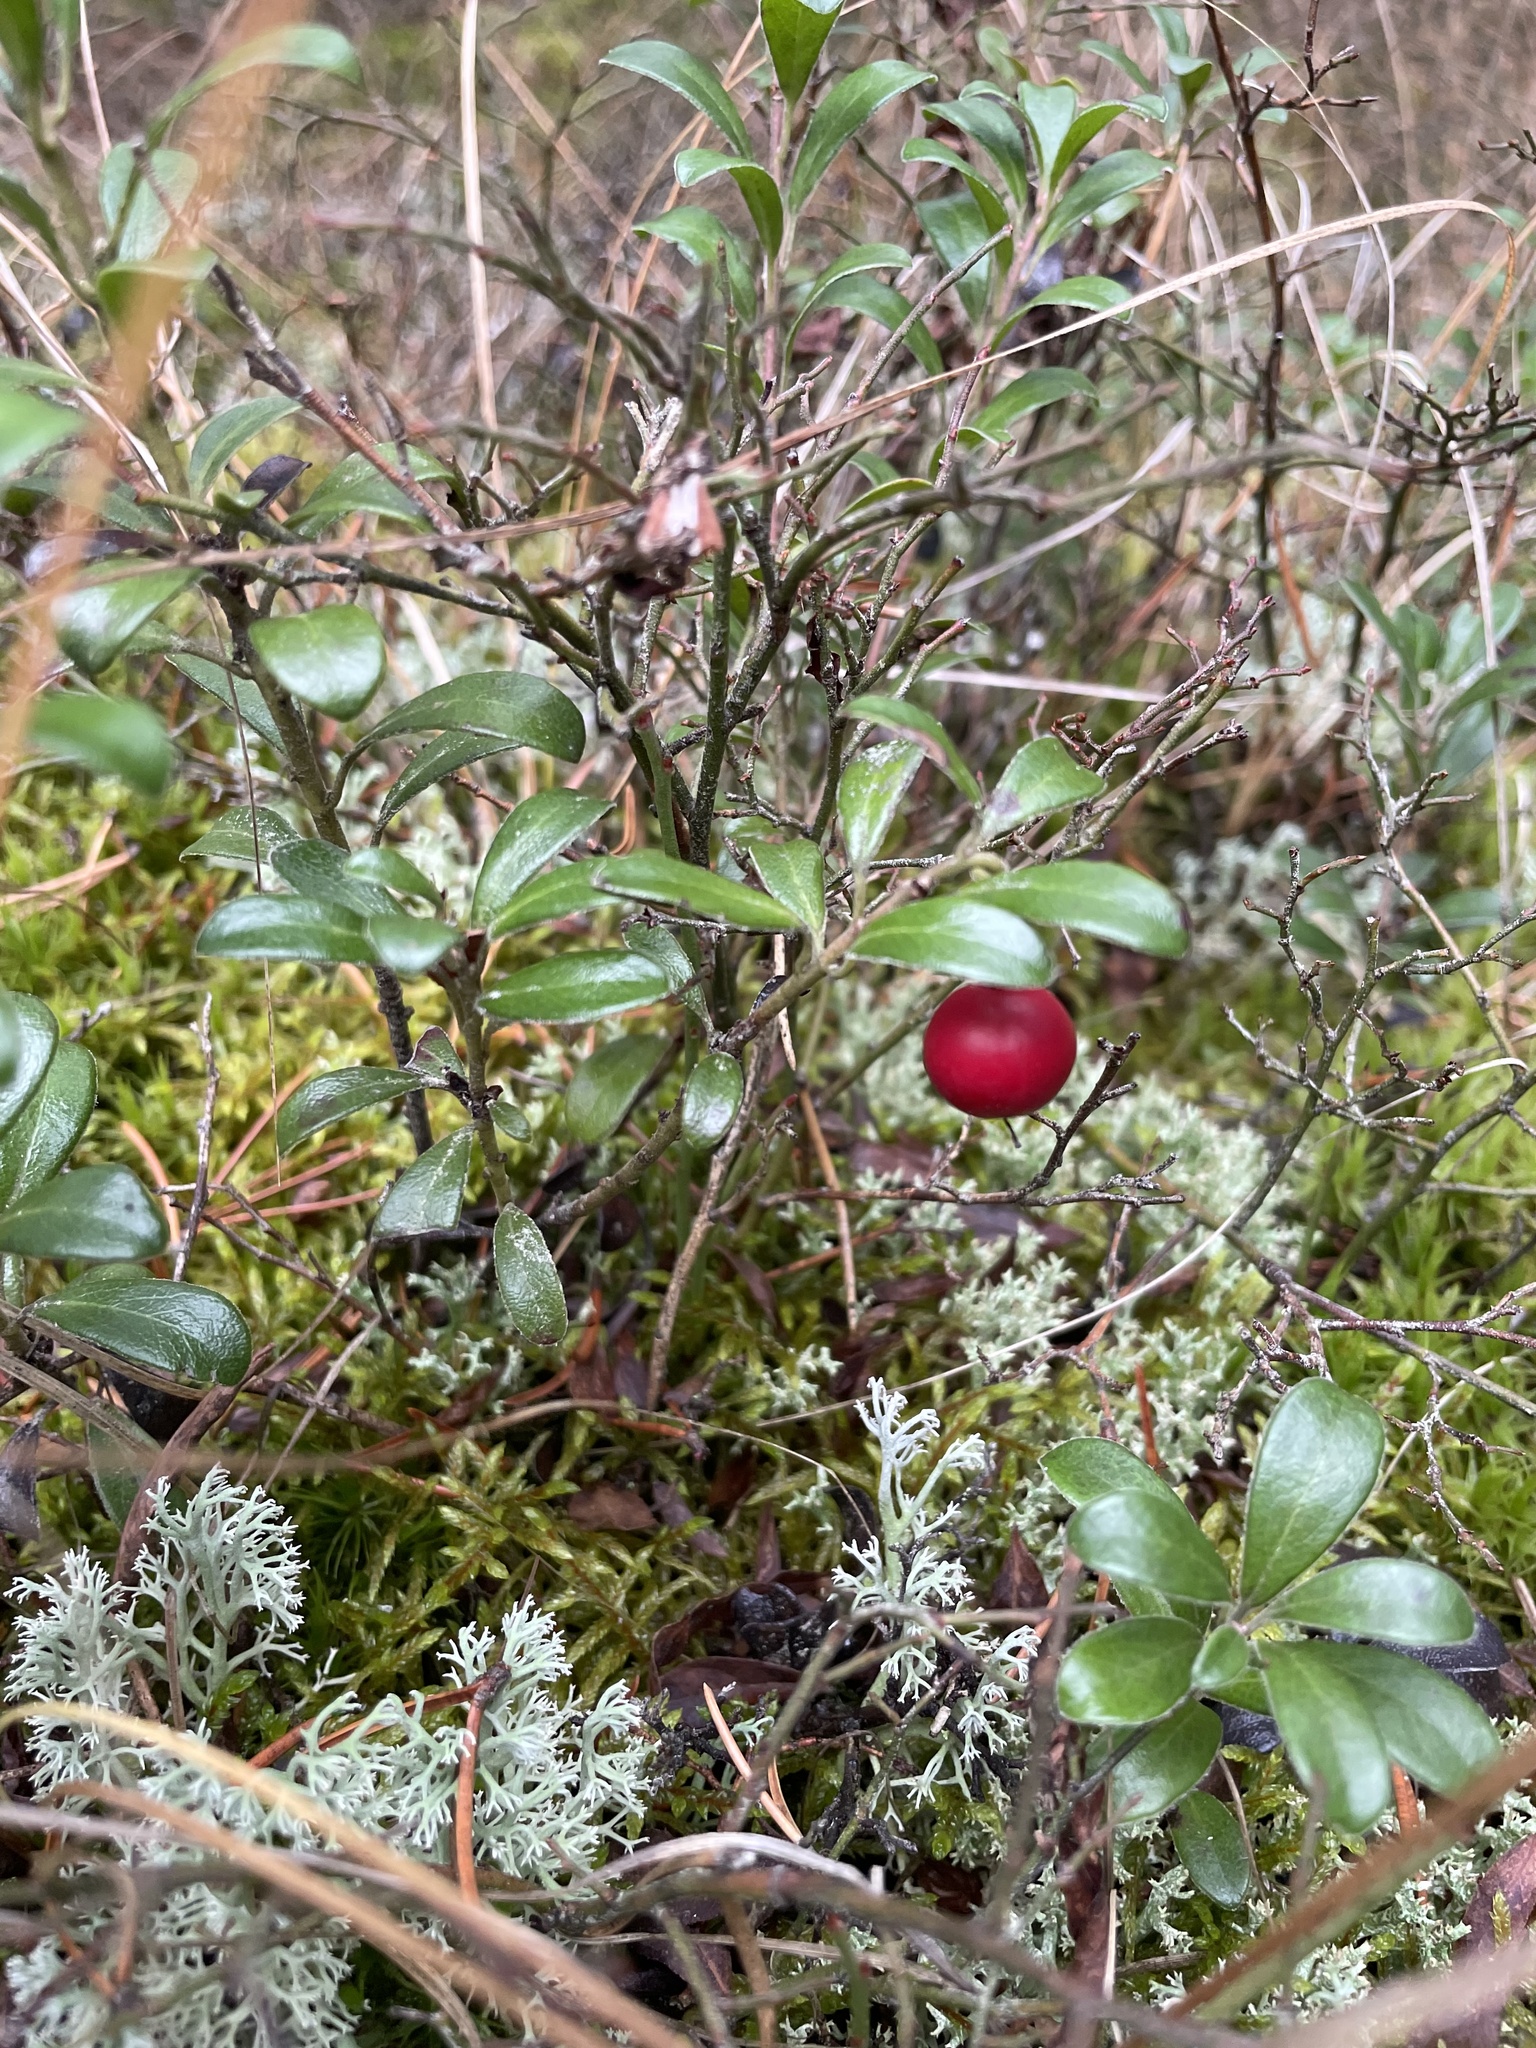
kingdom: Plantae
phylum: Tracheophyta
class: Magnoliopsida
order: Ericales
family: Ericaceae
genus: Arctostaphylos
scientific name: Arctostaphylos uva-ursi
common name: Bearberry
